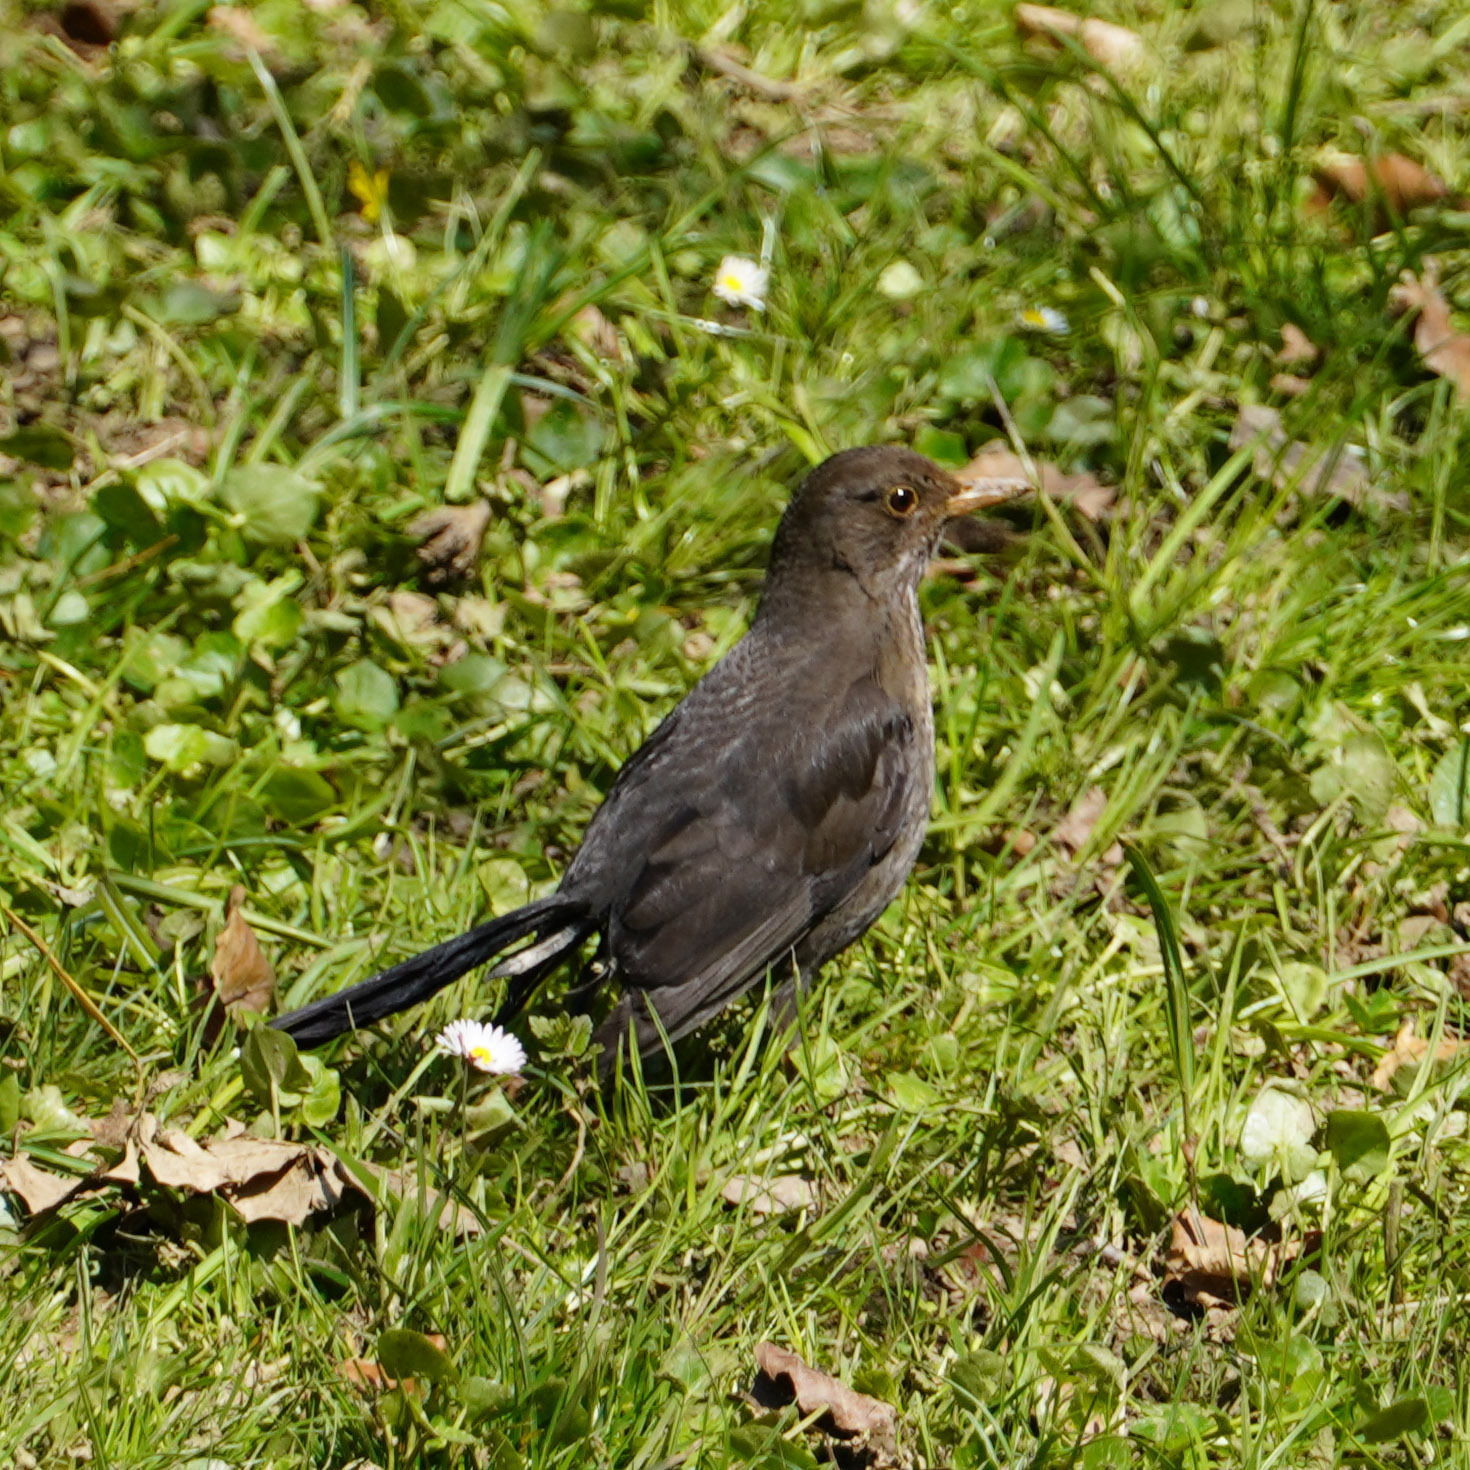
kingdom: Animalia
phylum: Chordata
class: Aves
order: Passeriformes
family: Turdidae
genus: Turdus
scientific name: Turdus merula
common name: Common blackbird
